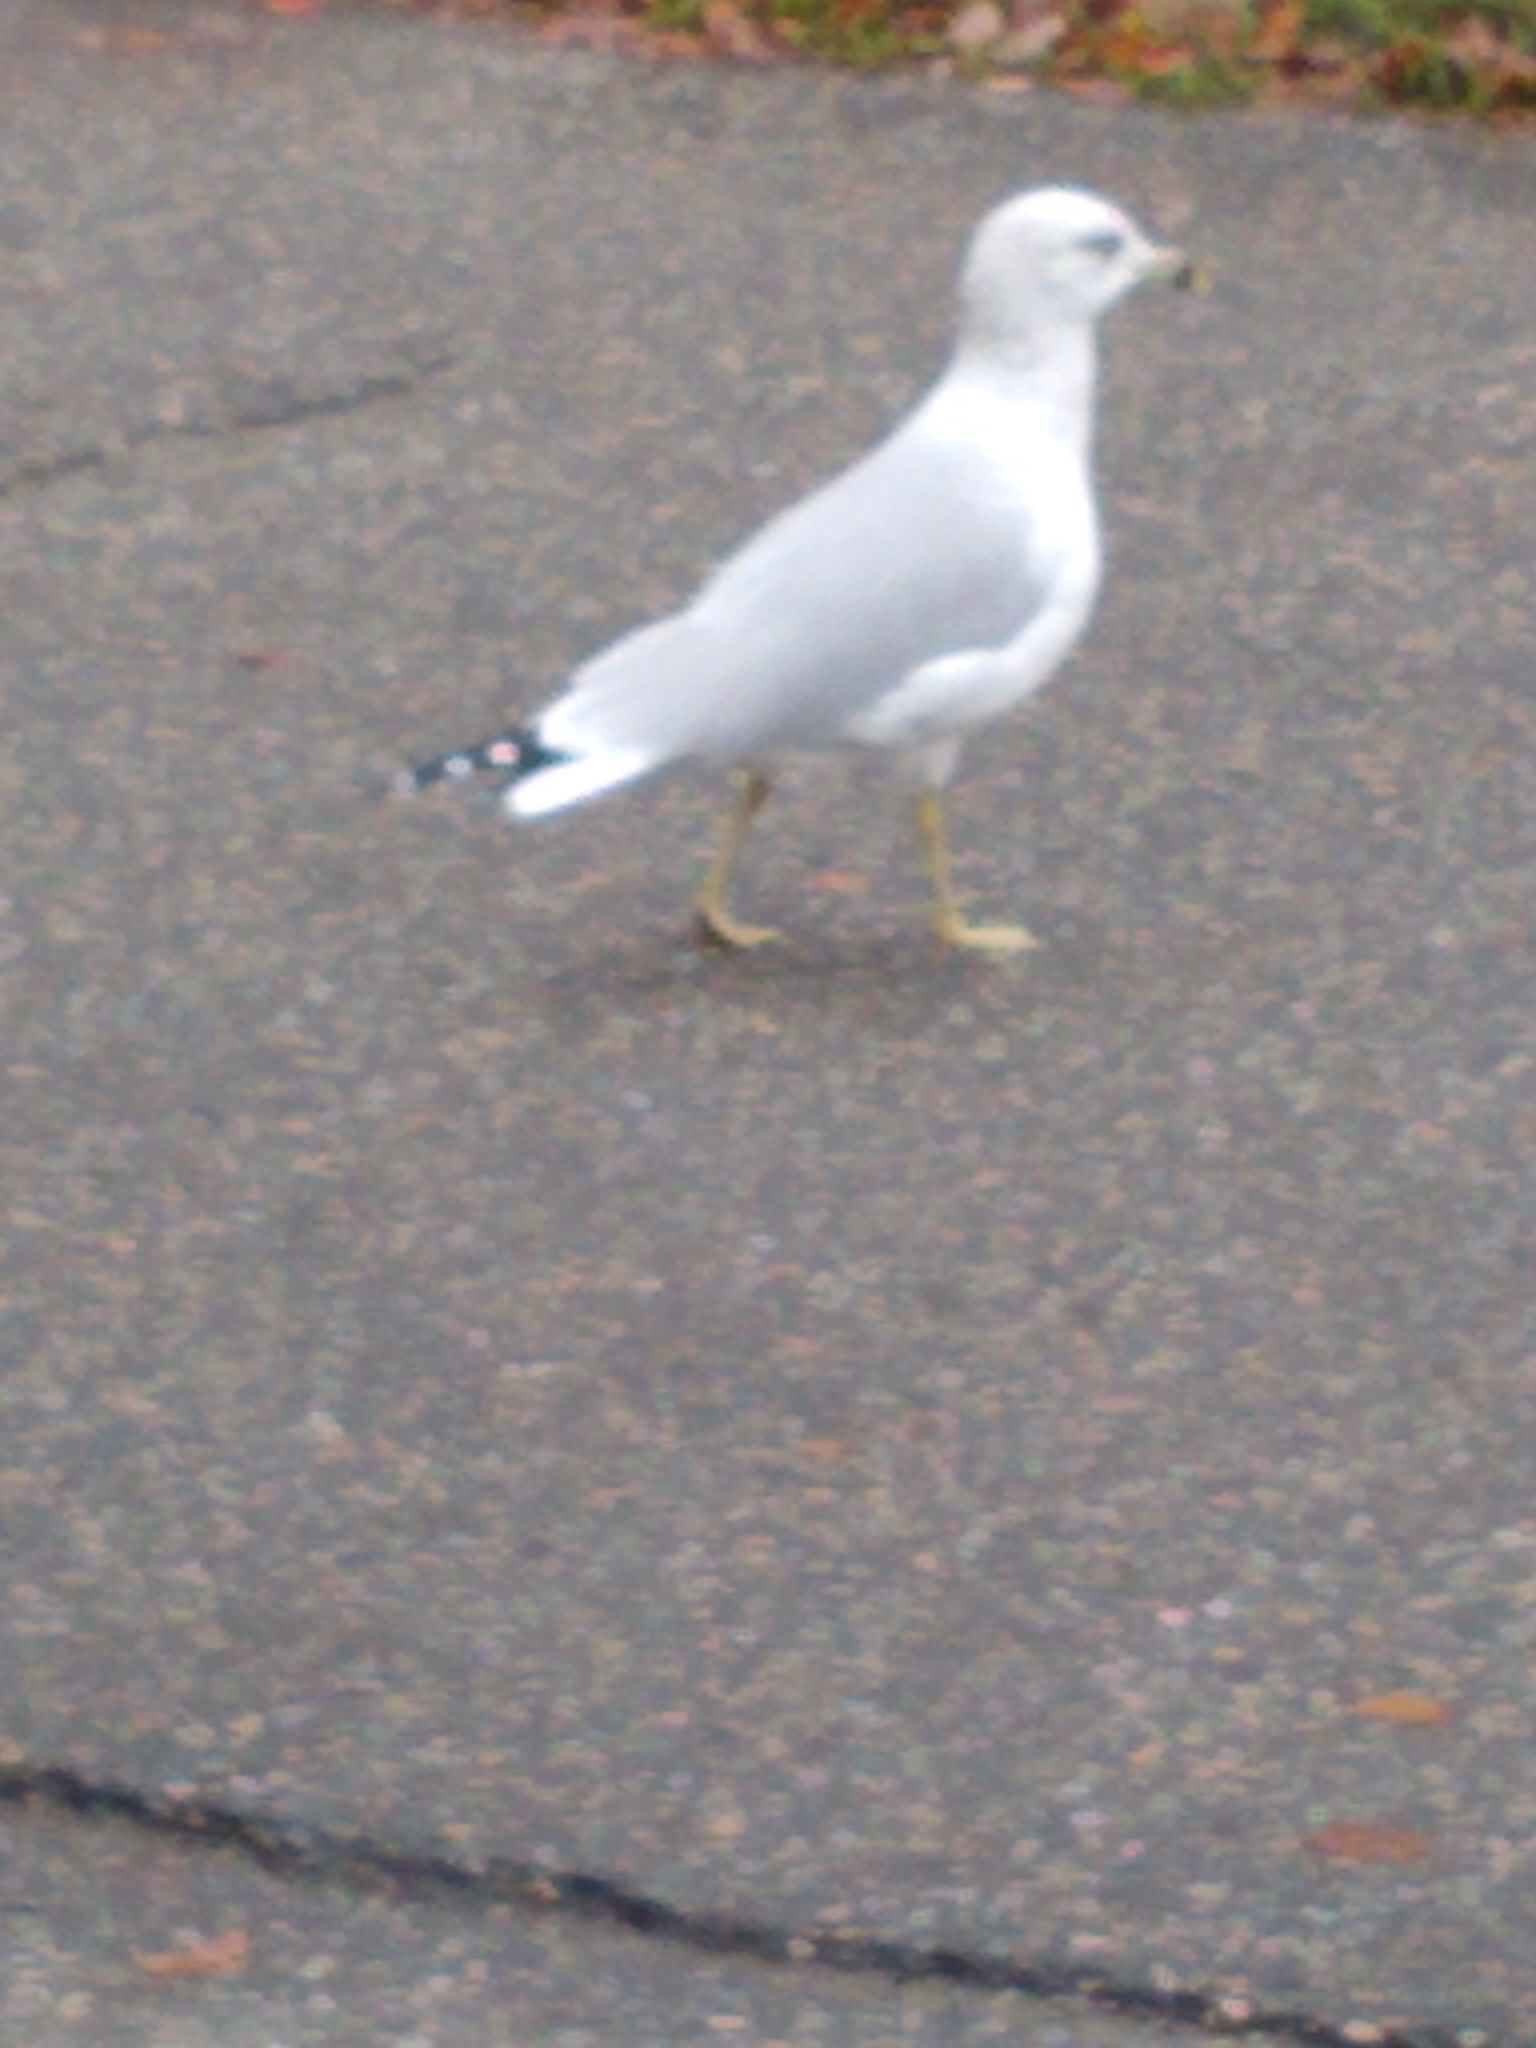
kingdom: Animalia
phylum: Chordata
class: Aves
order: Charadriiformes
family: Laridae
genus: Larus
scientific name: Larus delawarensis
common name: Ring-billed gull
